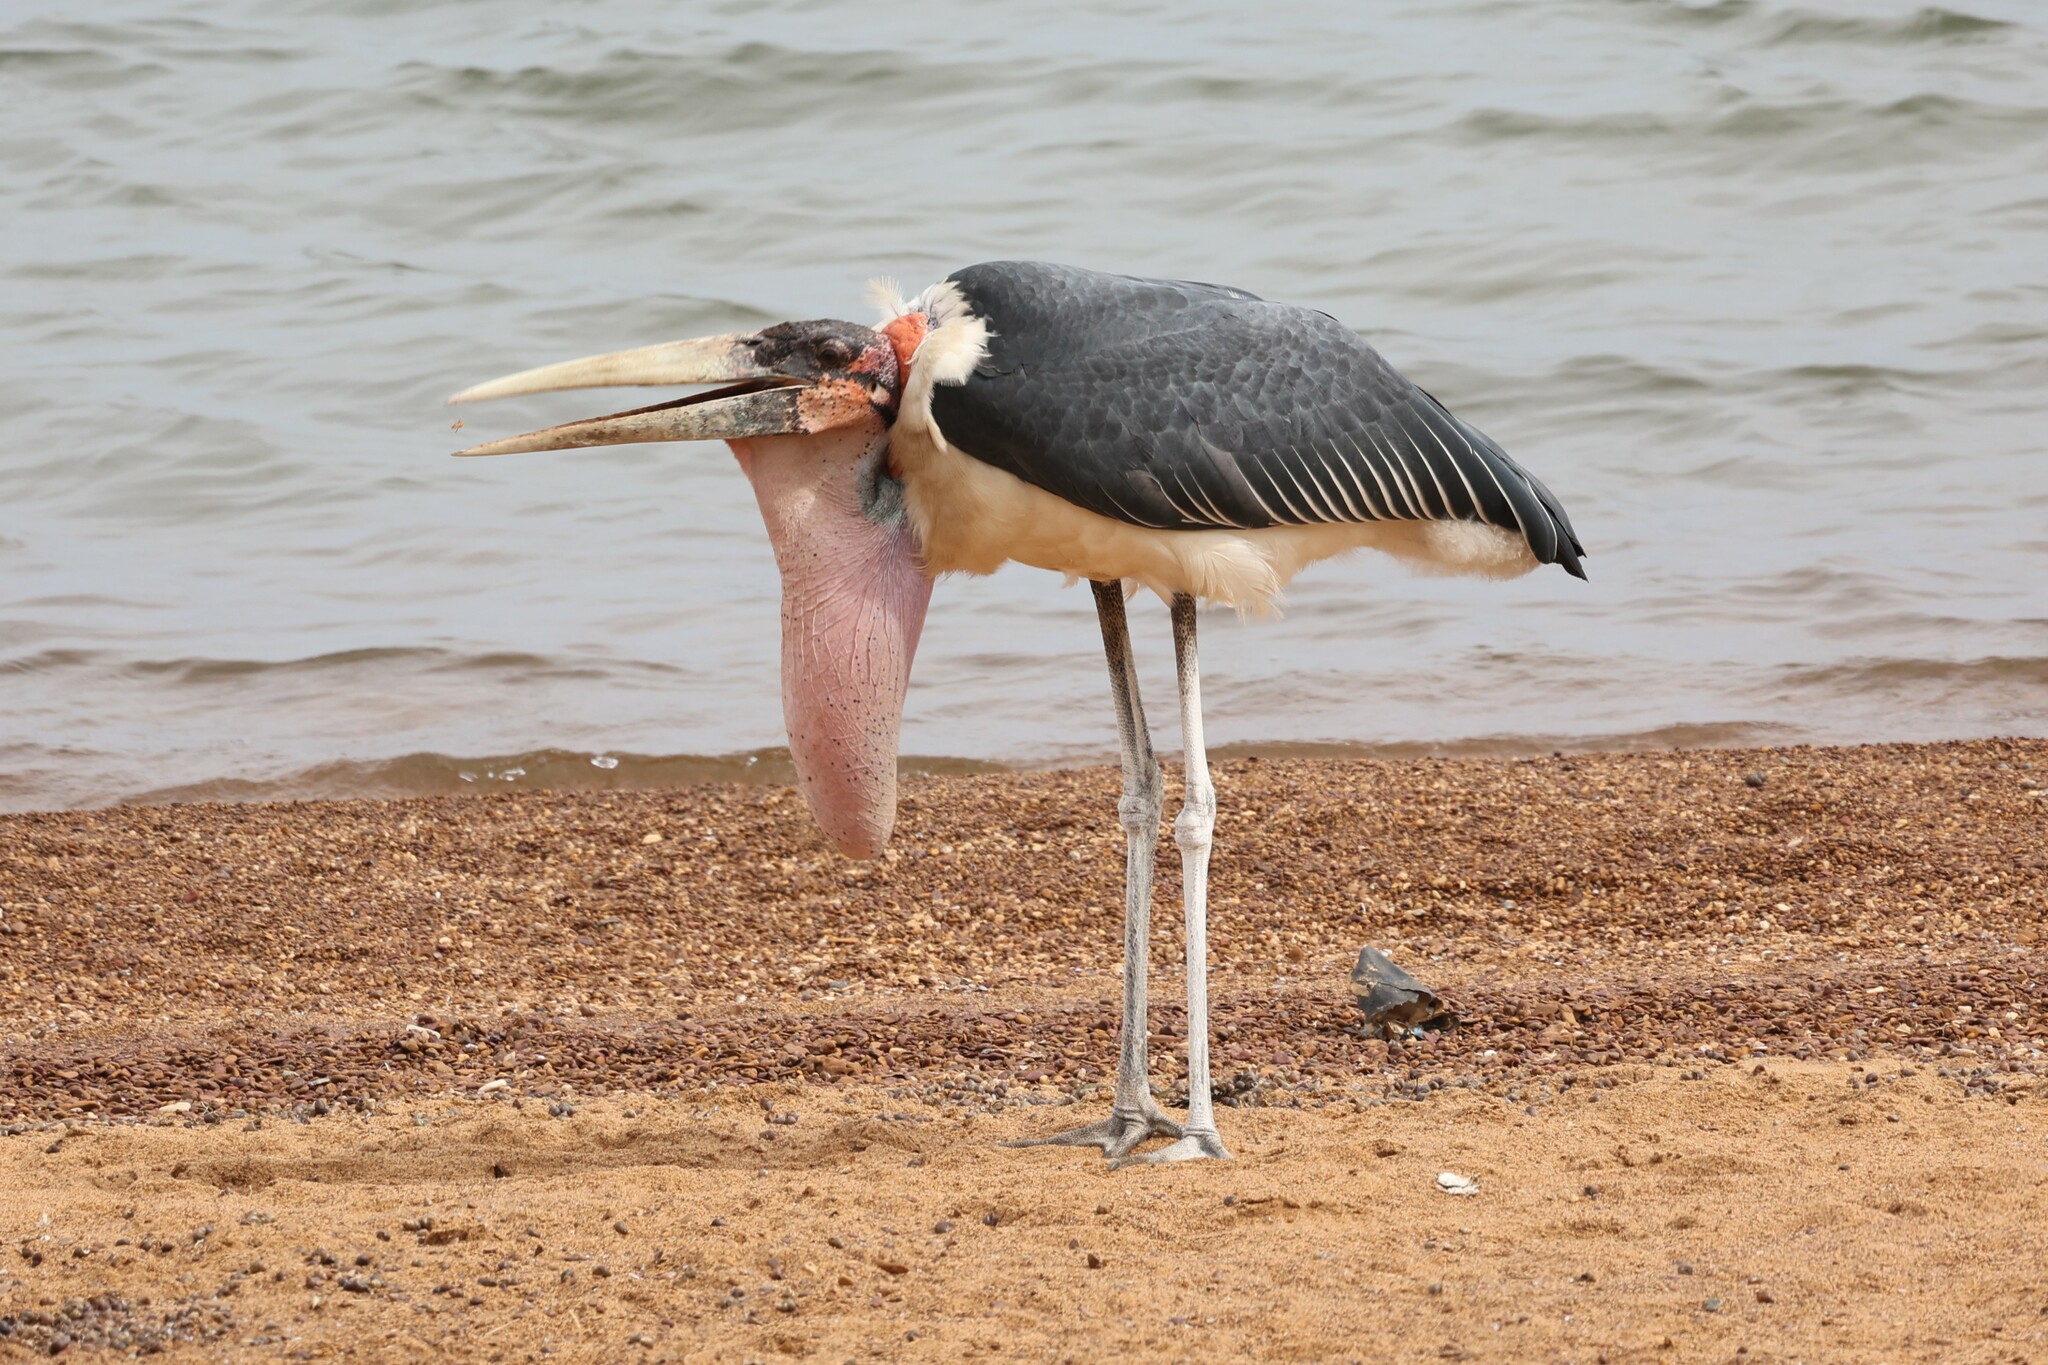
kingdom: Animalia
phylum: Chordata
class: Aves
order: Ciconiiformes
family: Ciconiidae
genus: Leptoptilos
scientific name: Leptoptilos crumenifer
